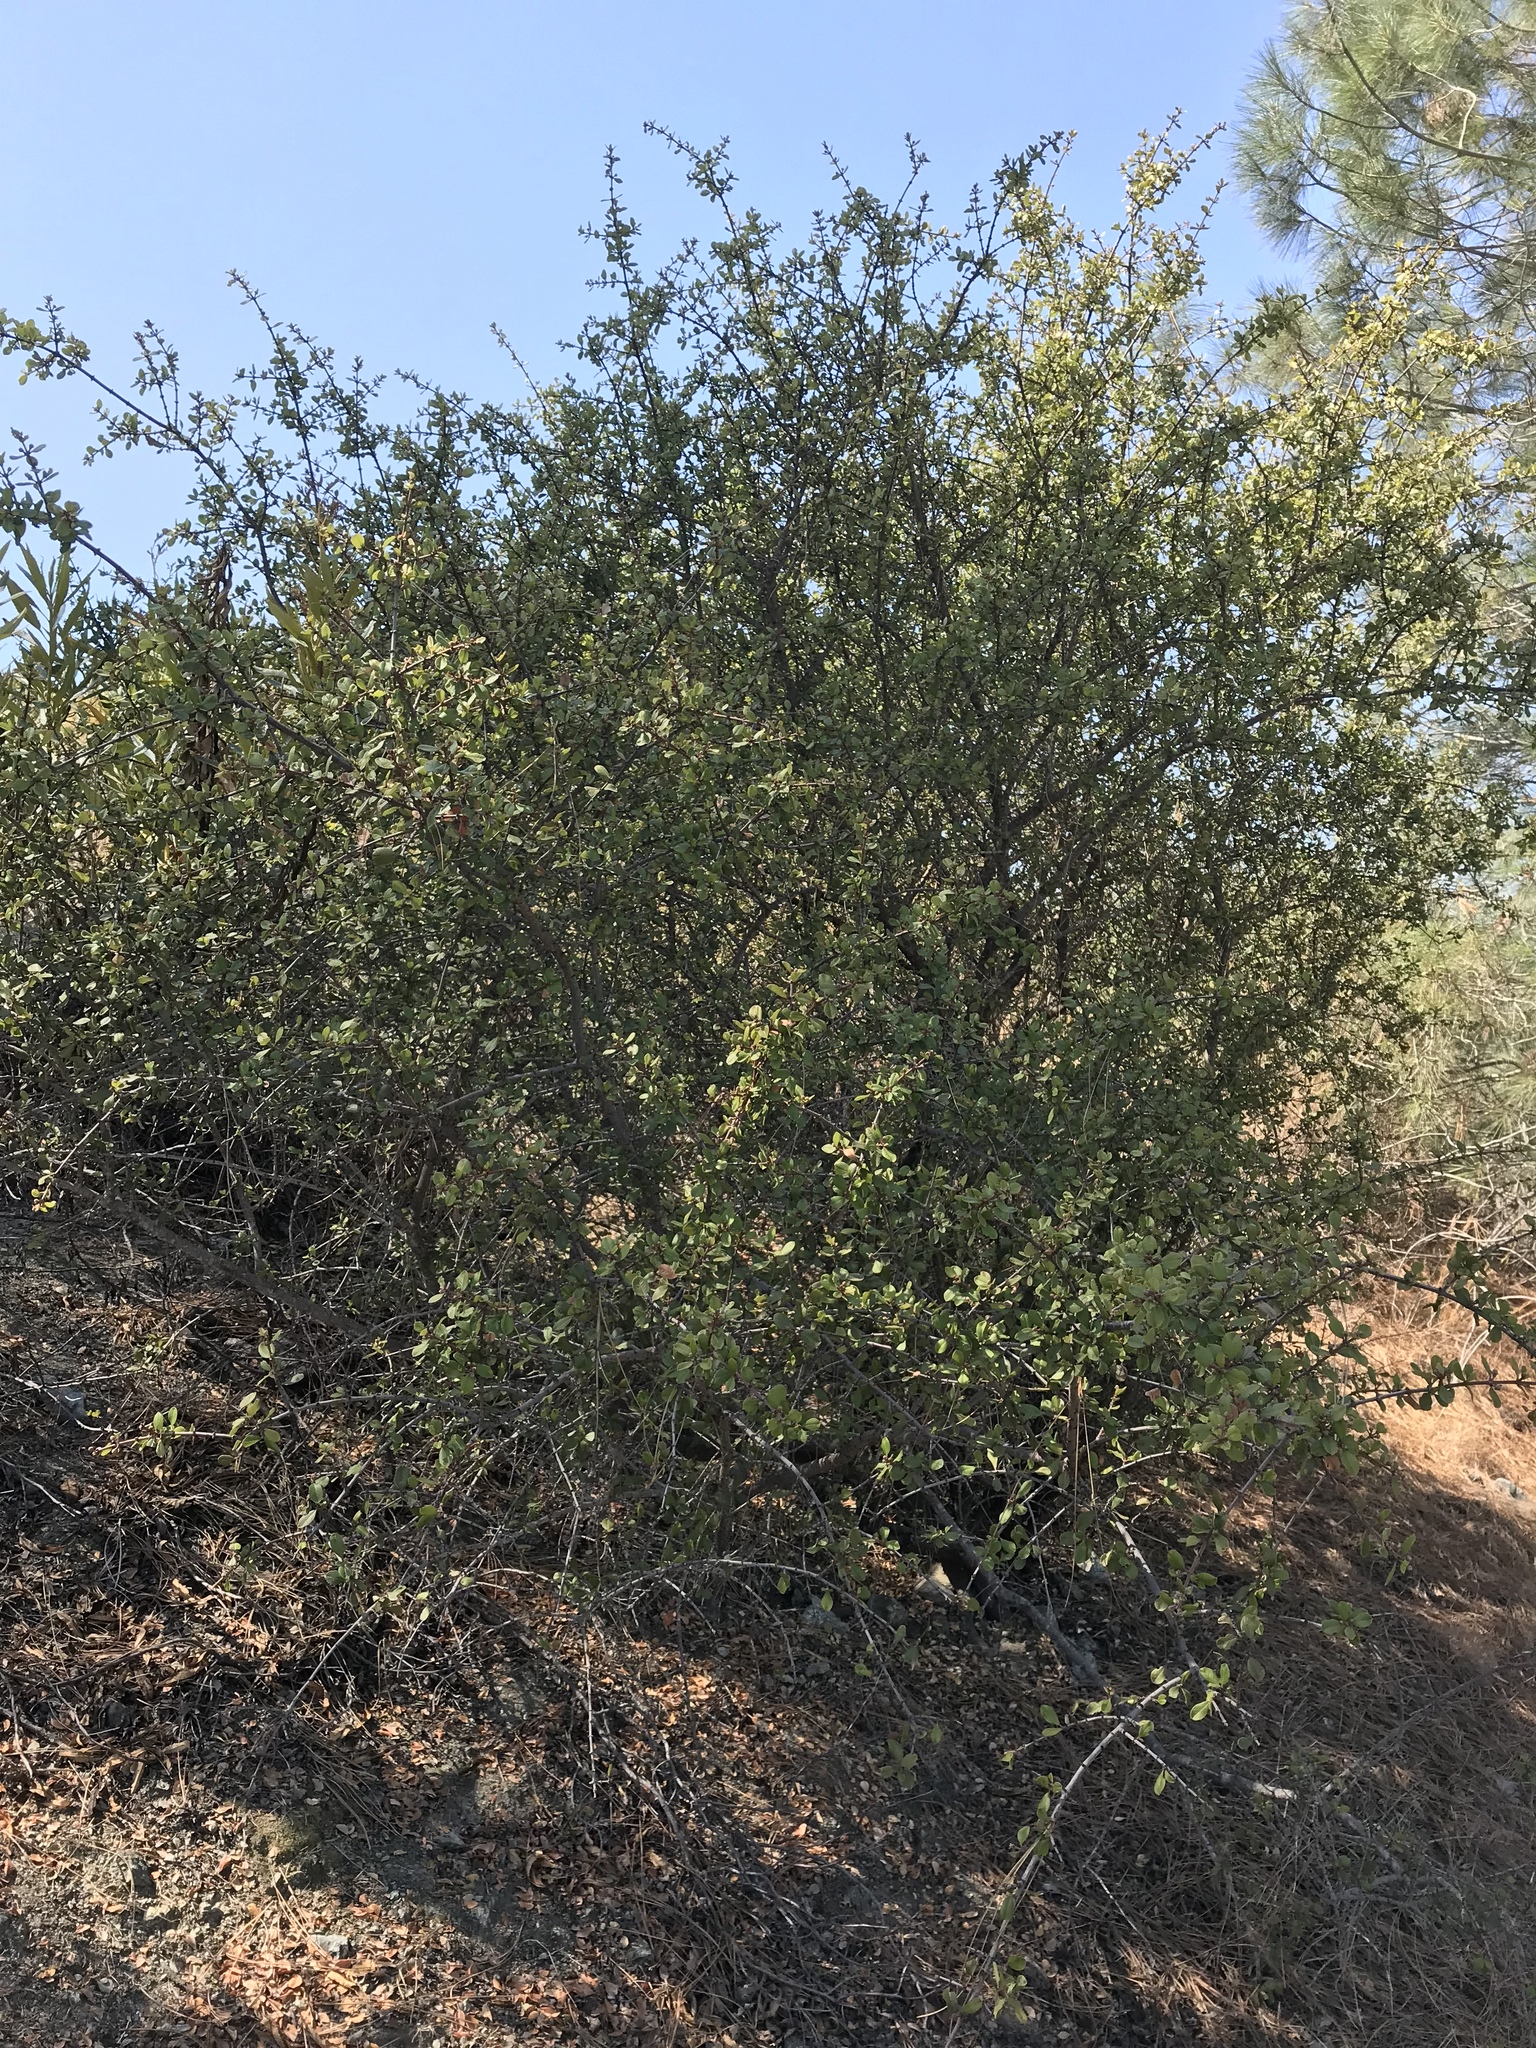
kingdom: Plantae
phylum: Tracheophyta
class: Magnoliopsida
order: Rosales
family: Rhamnaceae
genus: Ceanothus
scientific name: Ceanothus ferrisiae
